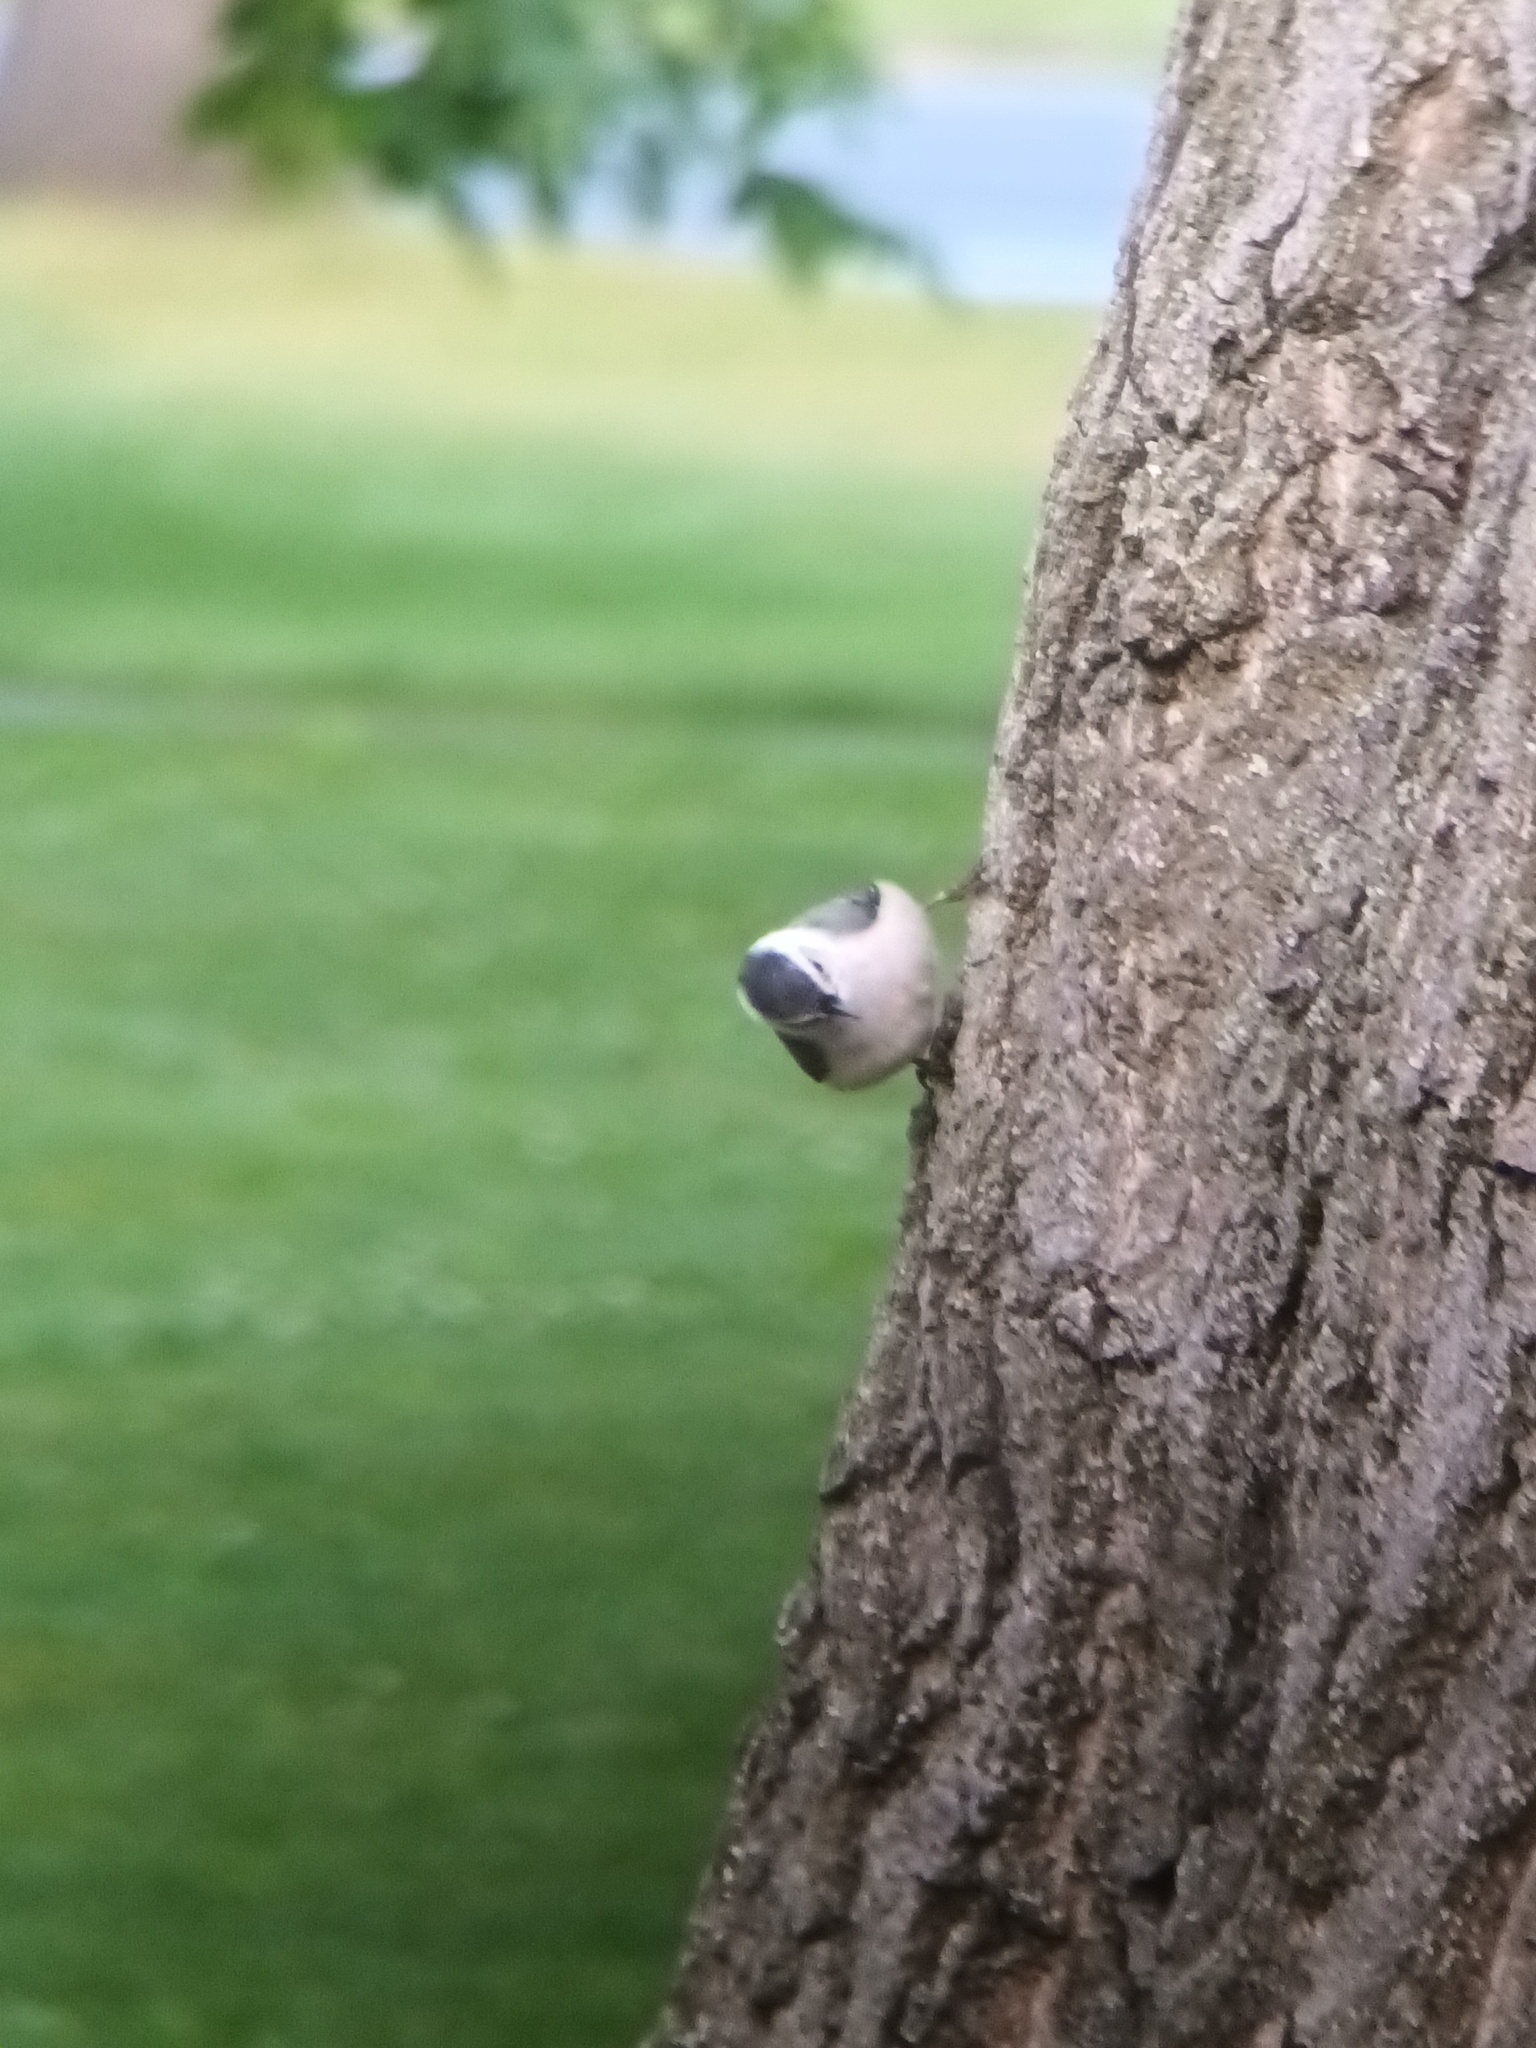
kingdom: Animalia
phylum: Chordata
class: Aves
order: Passeriformes
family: Sittidae
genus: Sitta
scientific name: Sitta carolinensis
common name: White-breasted nuthatch
